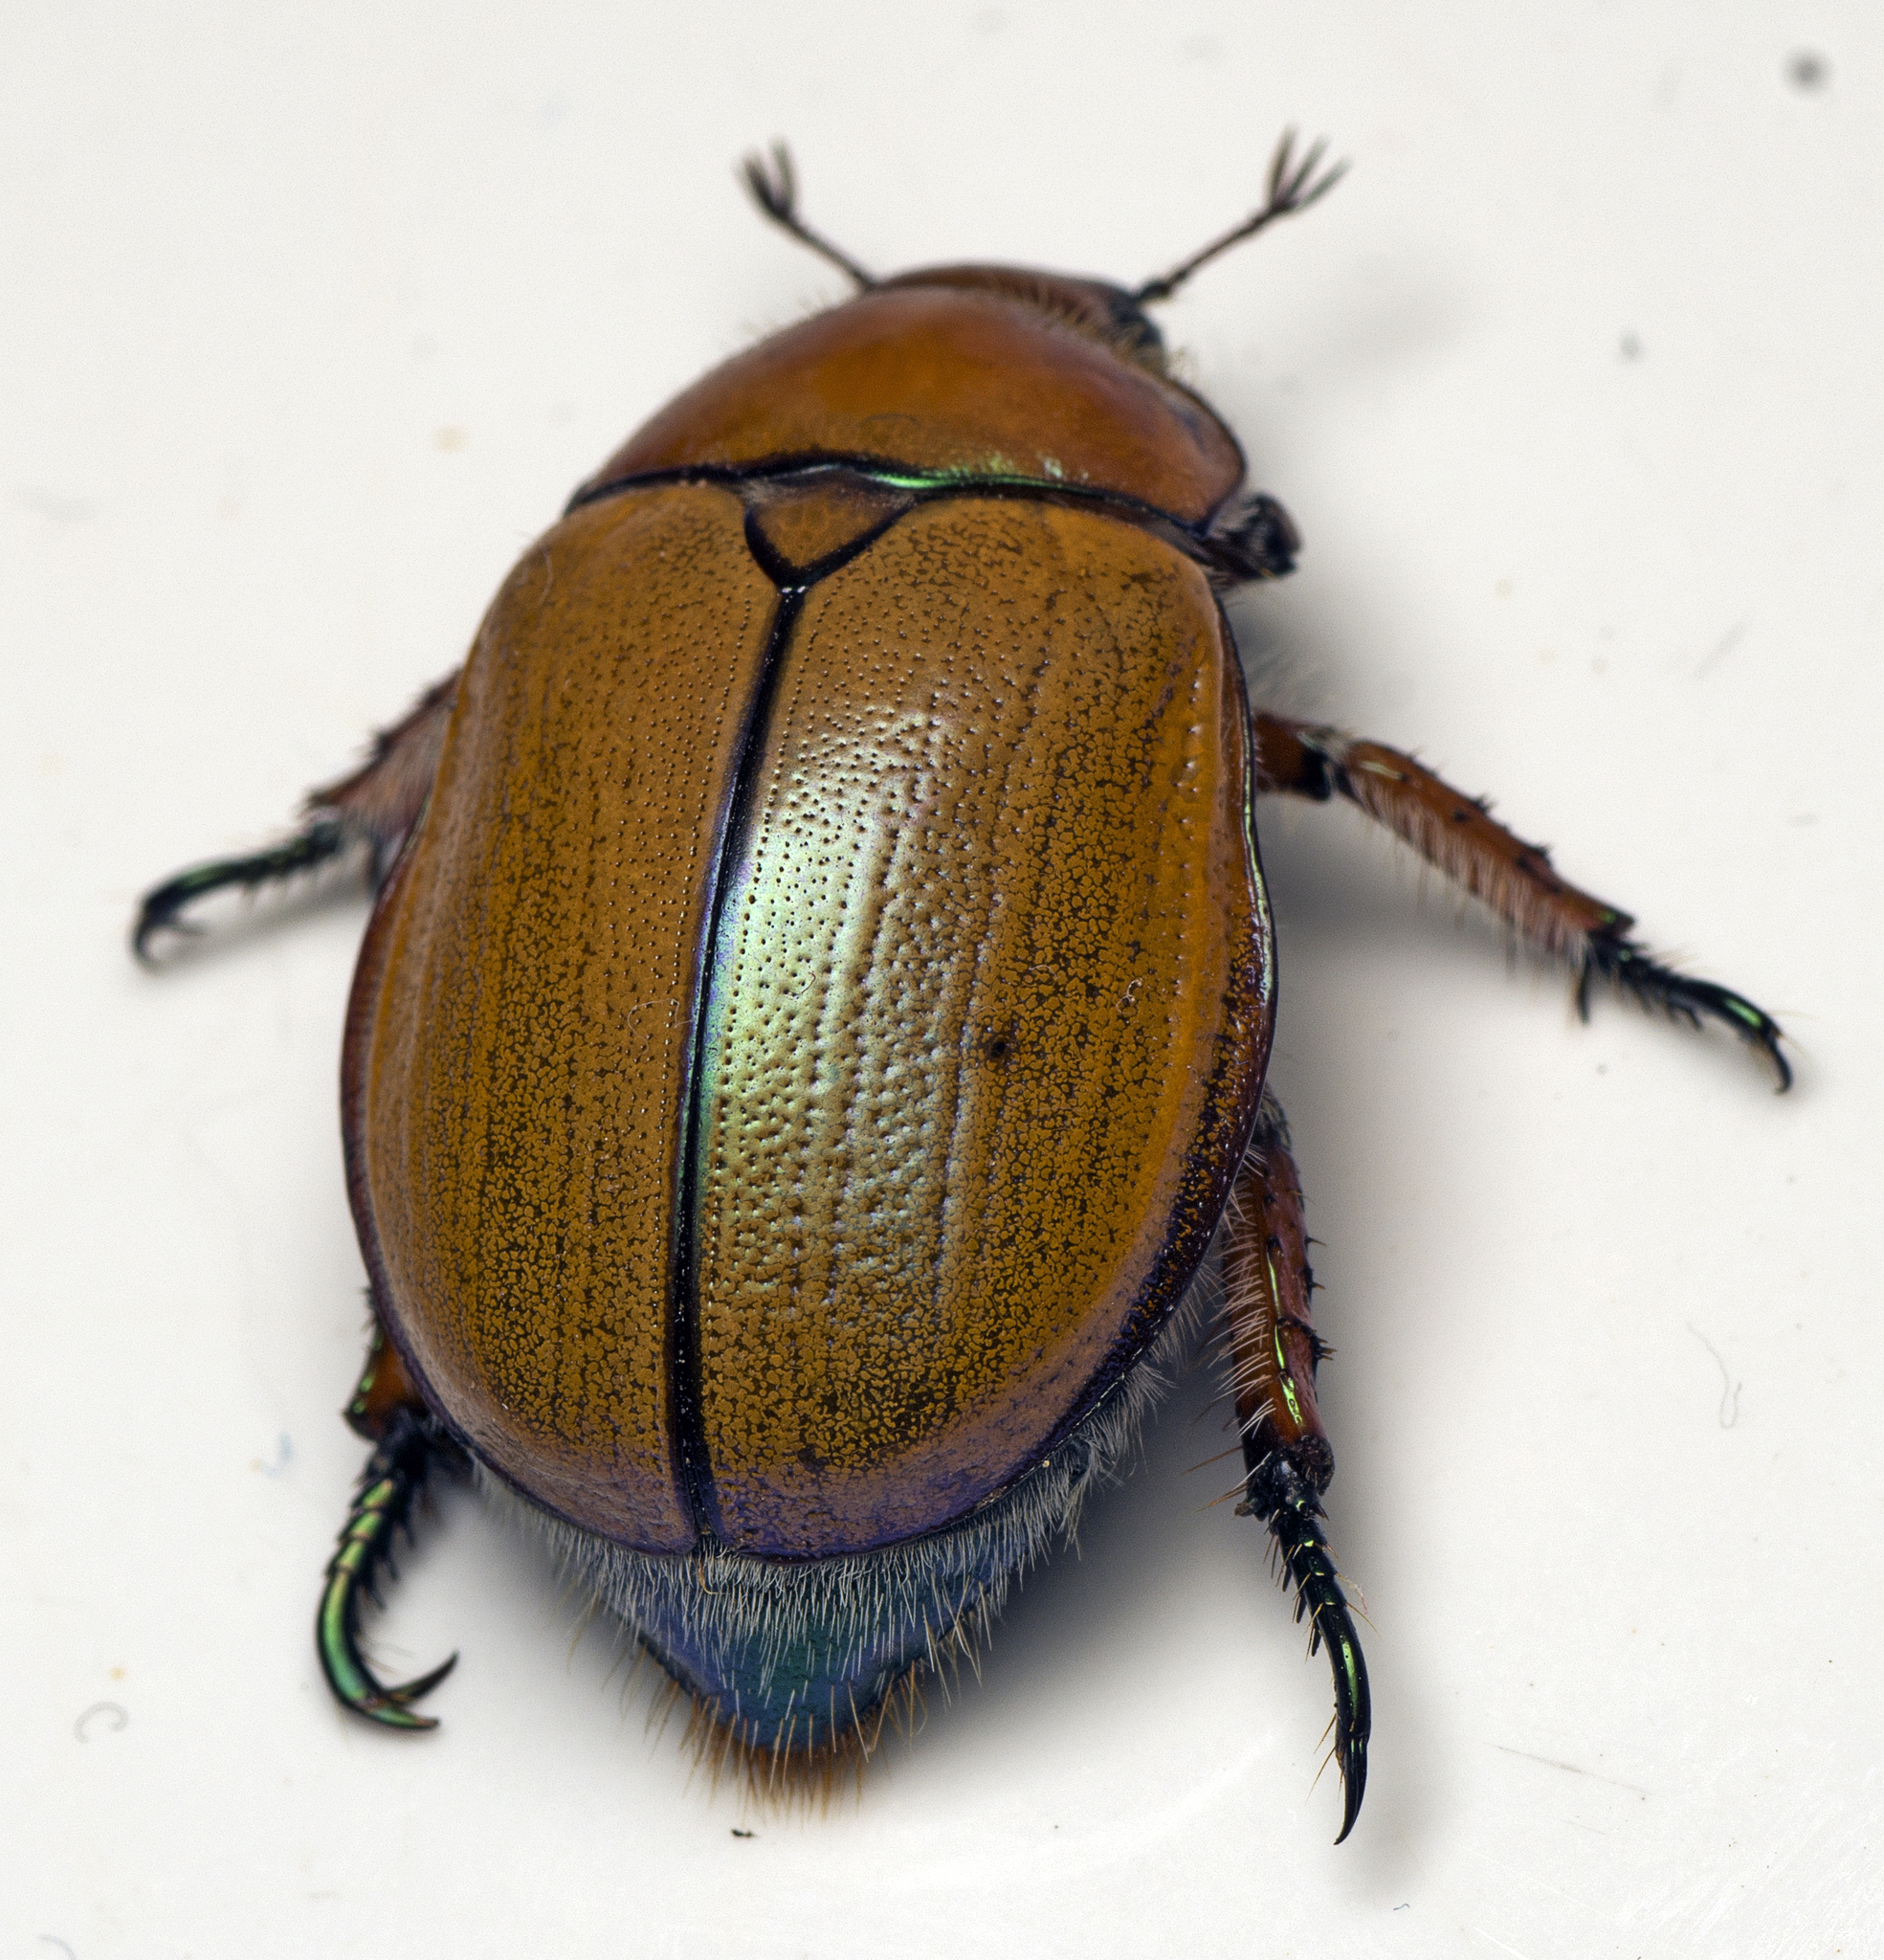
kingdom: Animalia
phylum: Arthropoda
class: Insecta
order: Coleoptera
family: Scarabaeidae
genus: Anoplognathus
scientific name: Anoplognathus hirsutus
